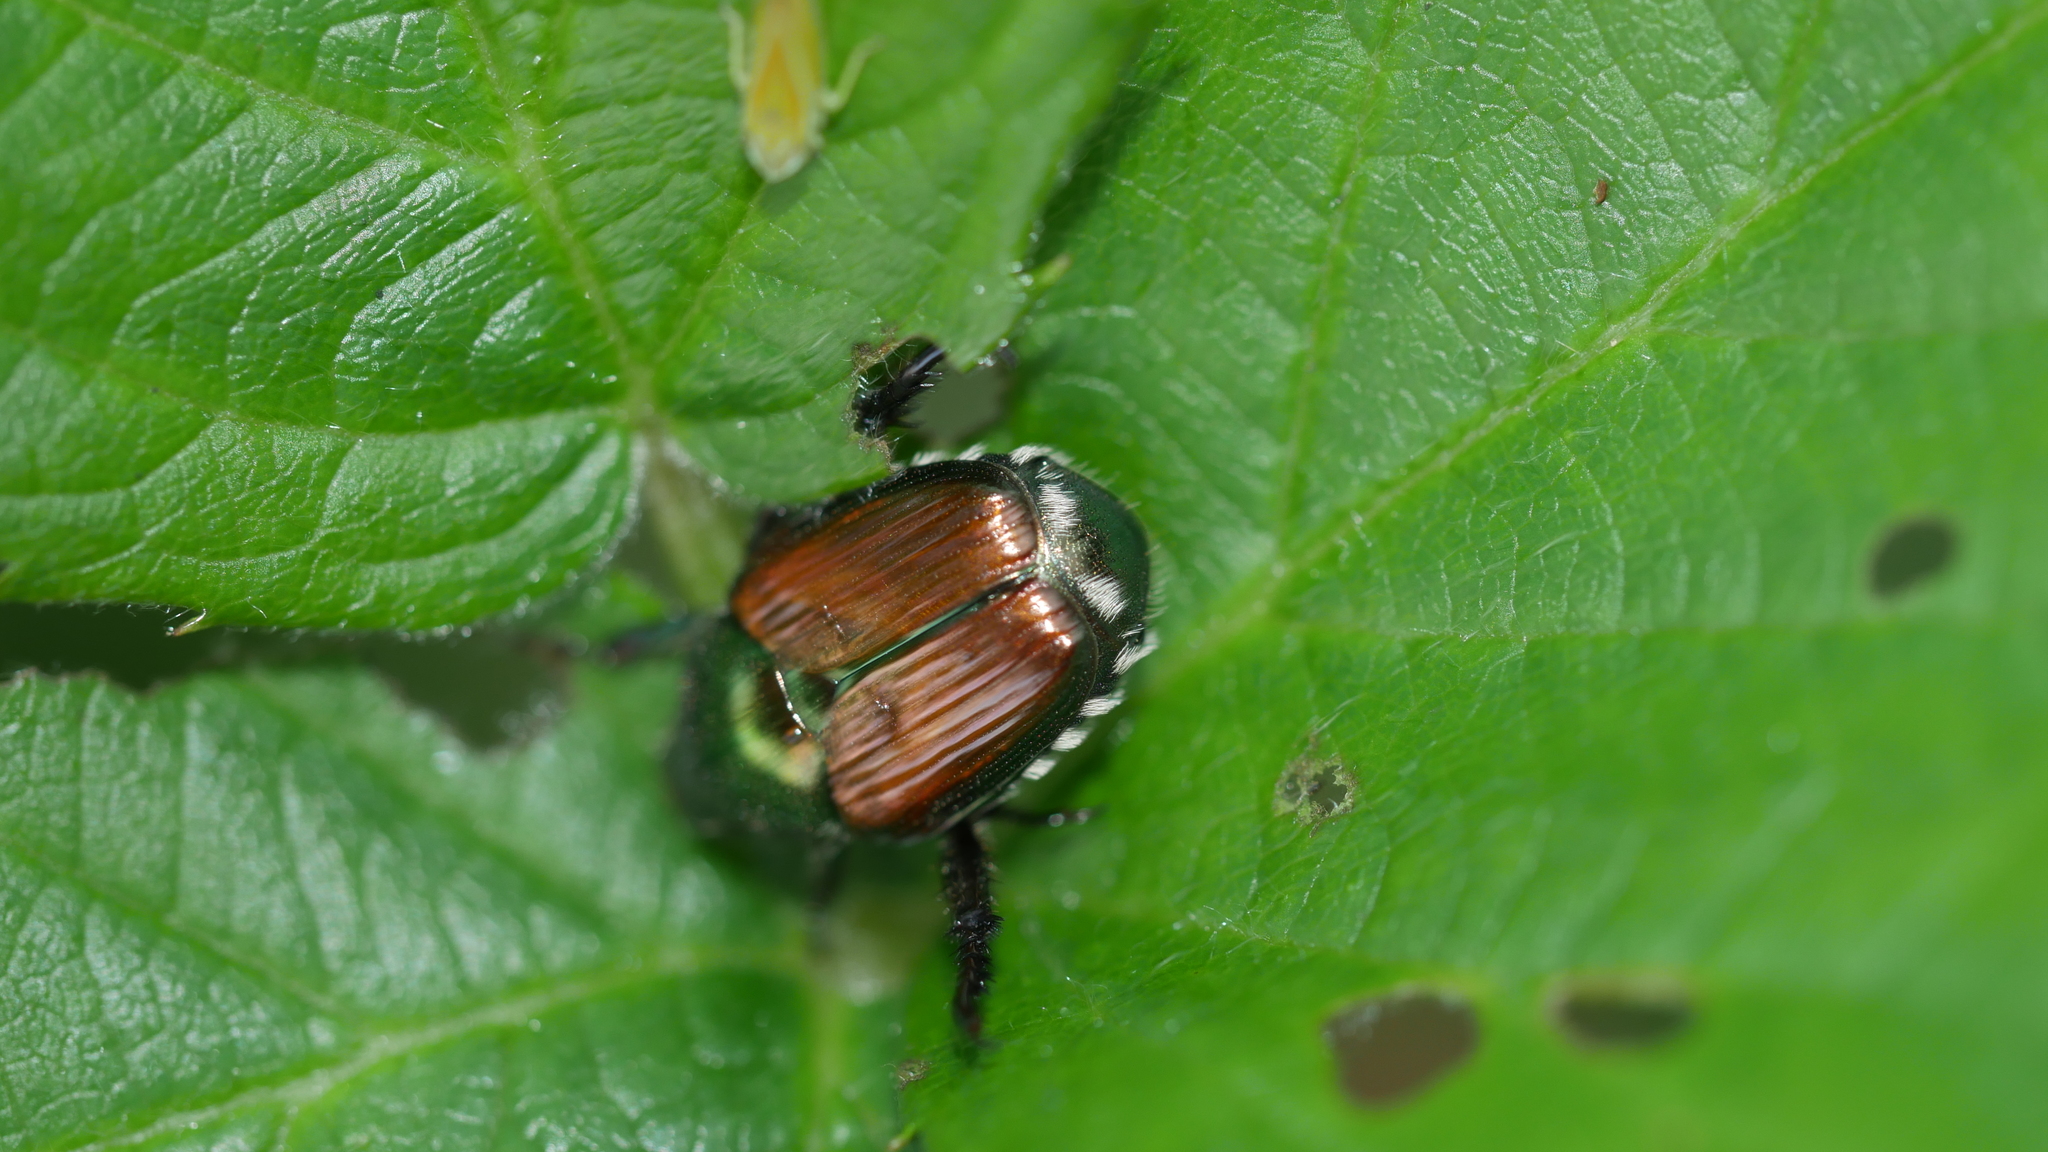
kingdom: Animalia
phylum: Arthropoda
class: Insecta
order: Coleoptera
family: Scarabaeidae
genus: Popillia
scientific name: Popillia japonica
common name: Japanese beetle
